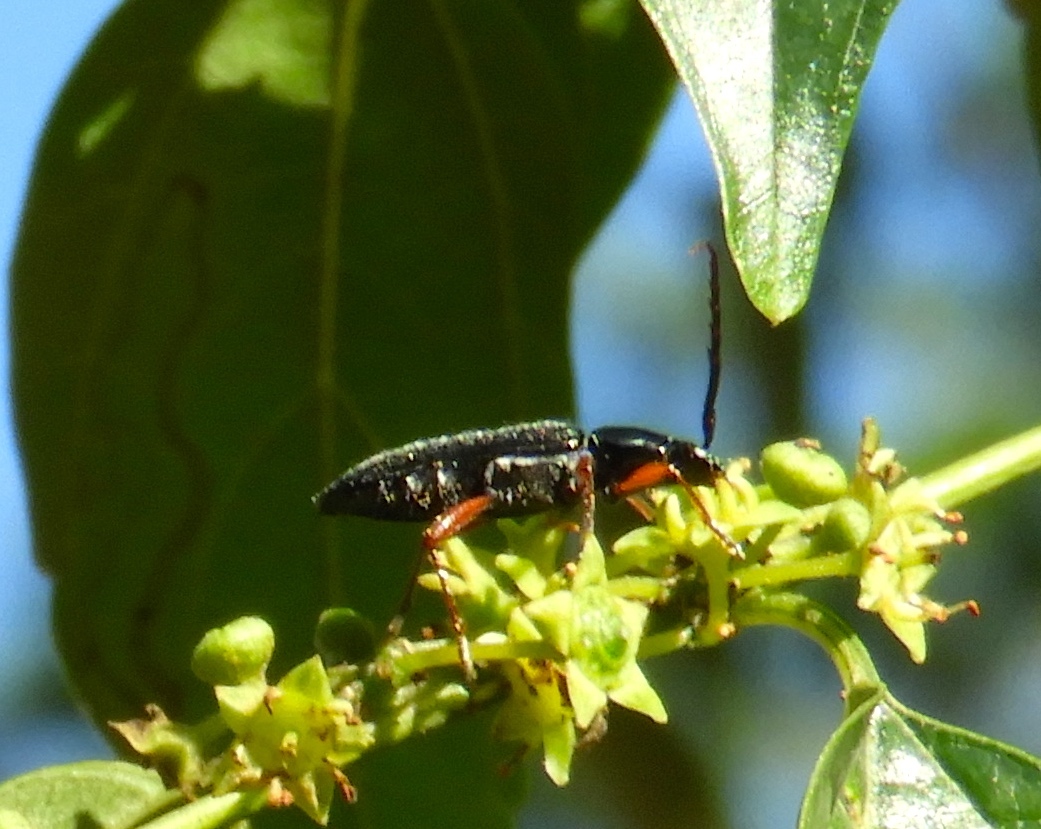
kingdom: Animalia
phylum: Arthropoda
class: Insecta
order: Coleoptera
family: Cerambycidae
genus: Stenosphenus
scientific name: Stenosphenus
